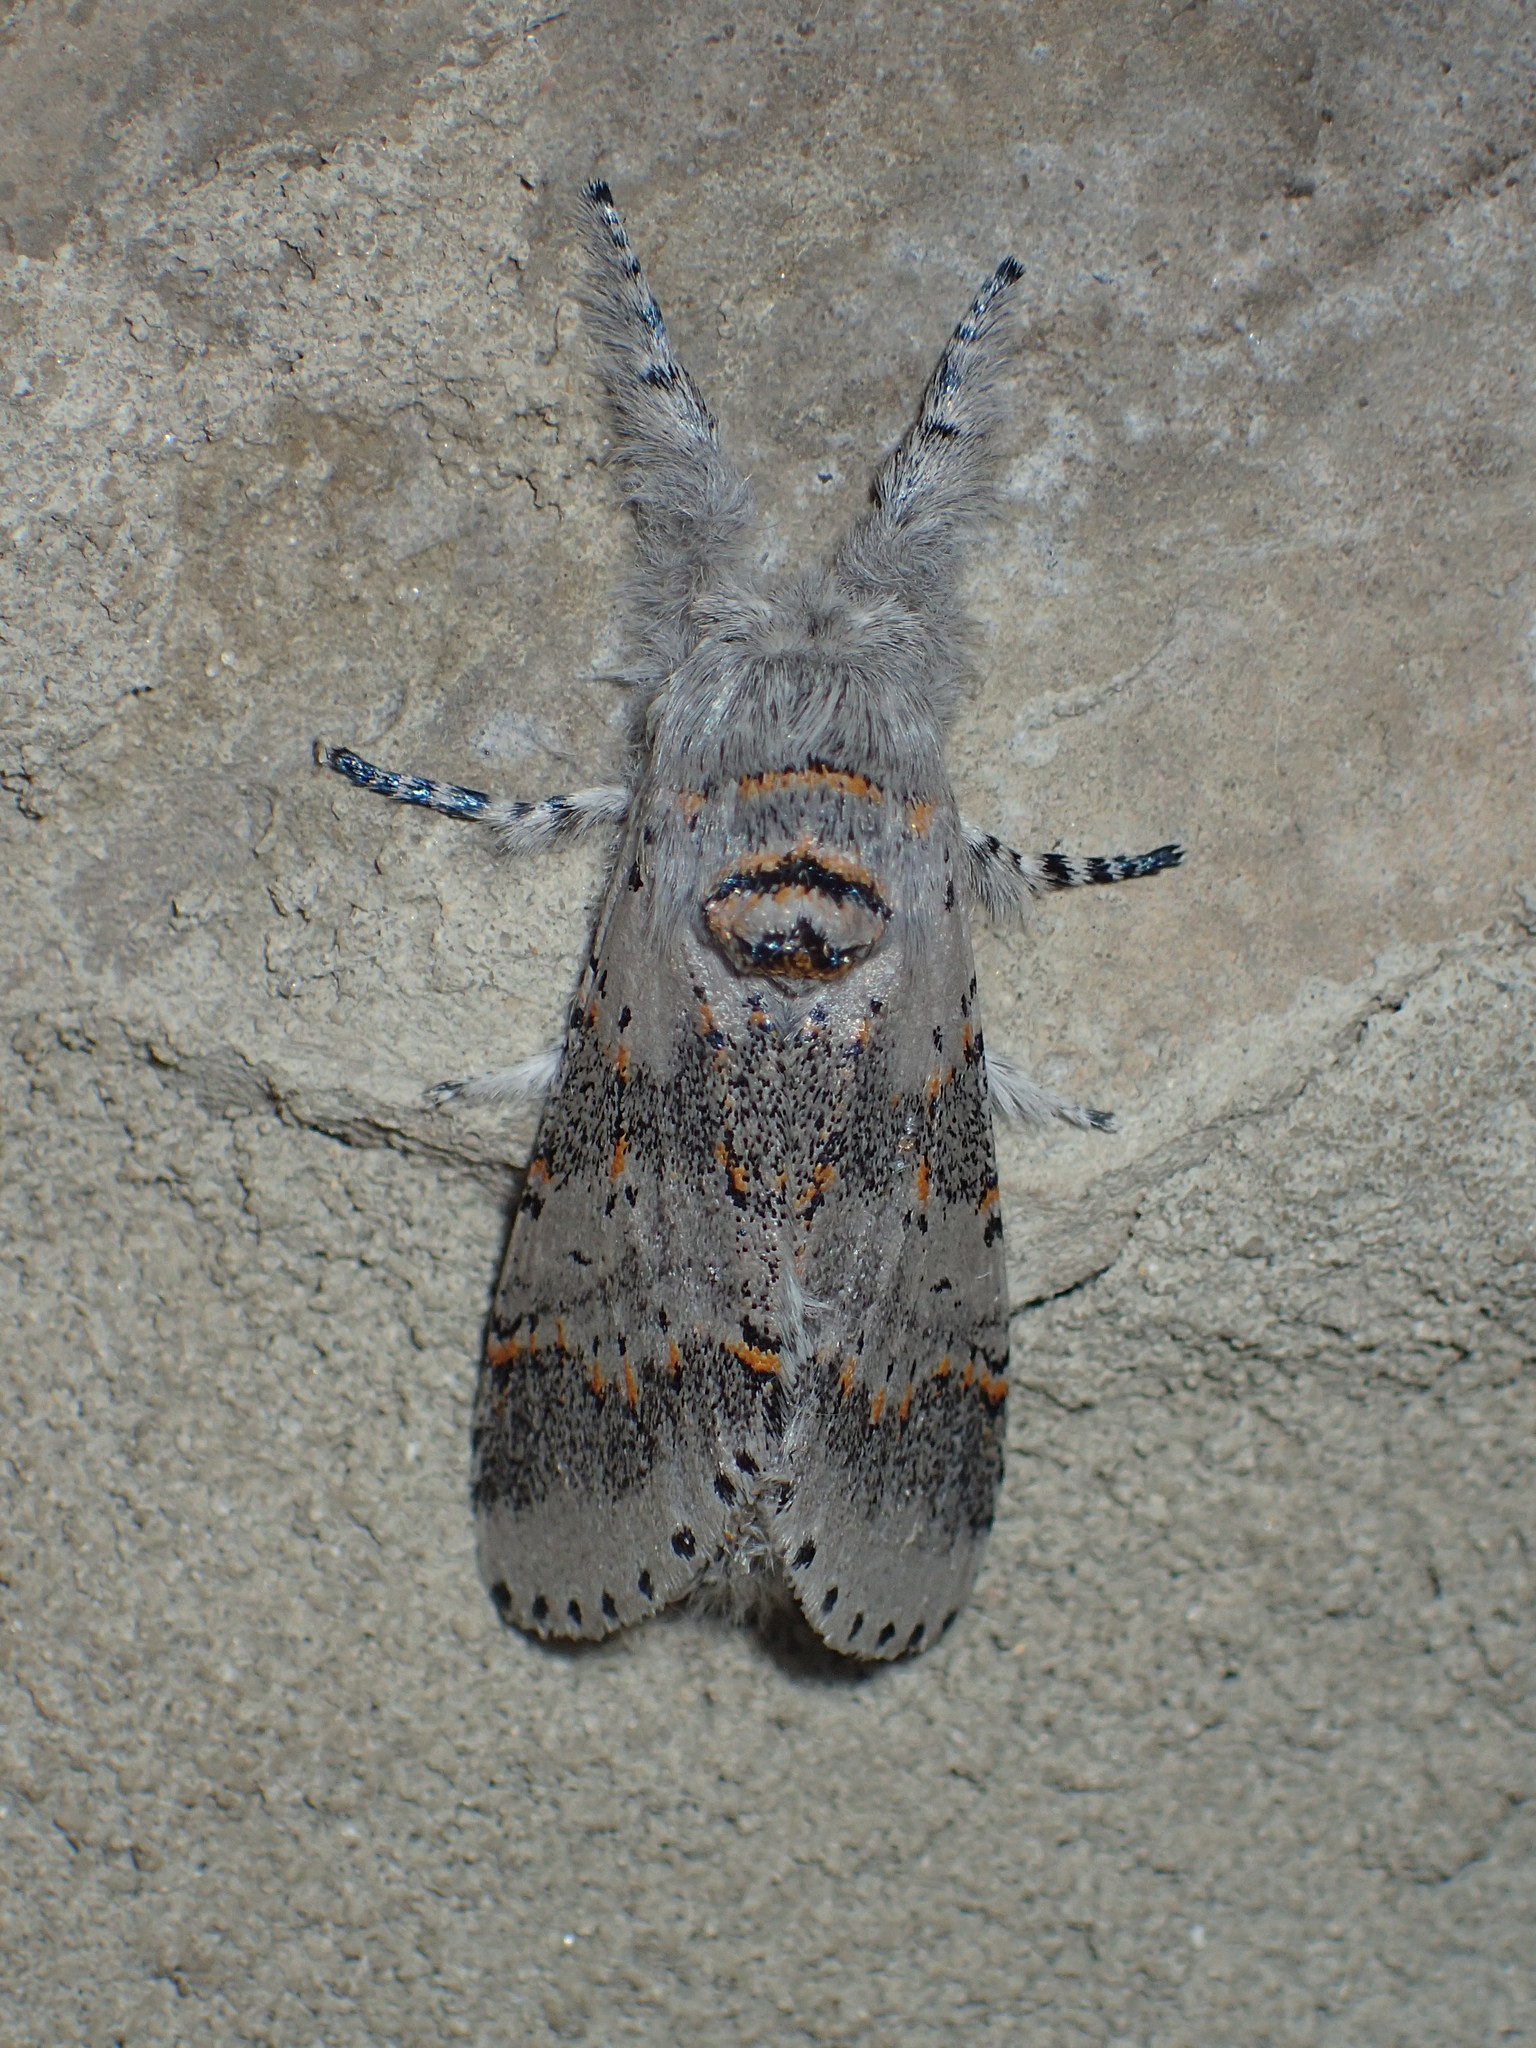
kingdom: Animalia
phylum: Arthropoda
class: Insecta
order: Lepidoptera
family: Notodontidae
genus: Furcula
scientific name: Furcula cinerea
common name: Gray furcula
